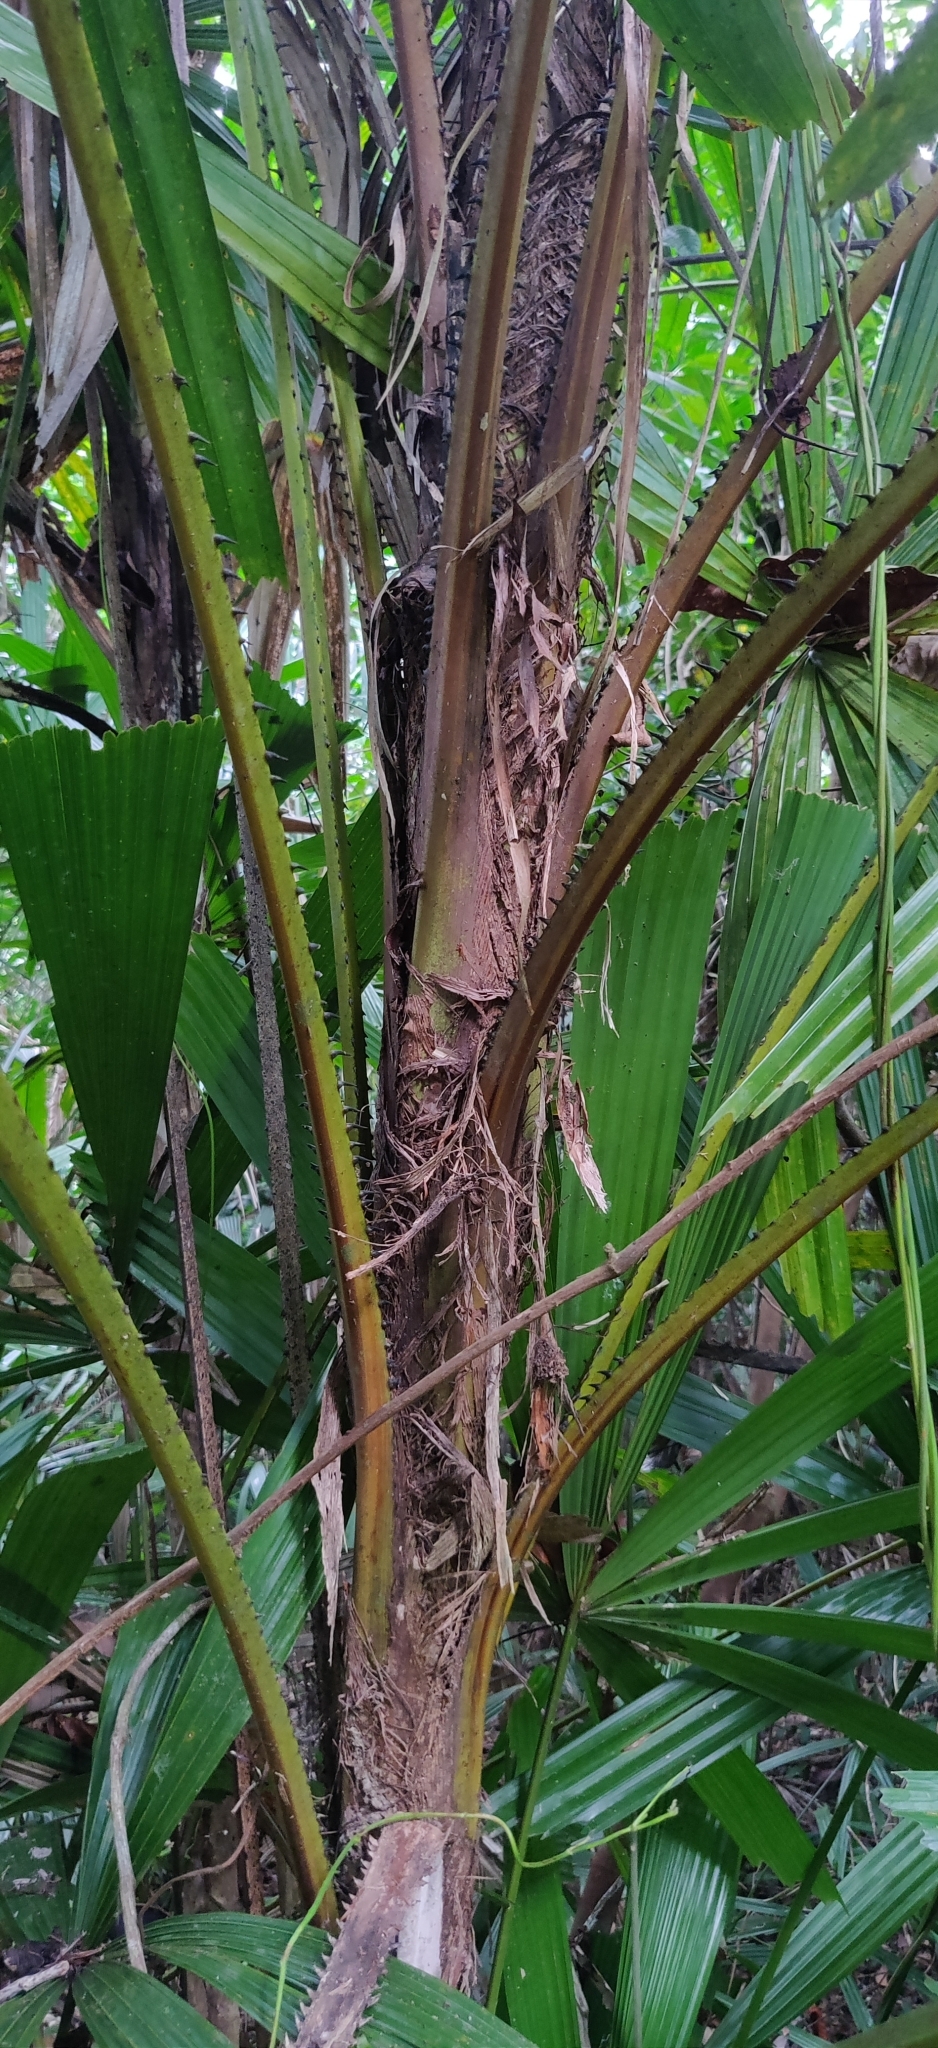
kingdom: Plantae
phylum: Tracheophyta
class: Liliopsida
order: Arecales
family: Arecaceae
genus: Licuala
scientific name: Licuala peltata
